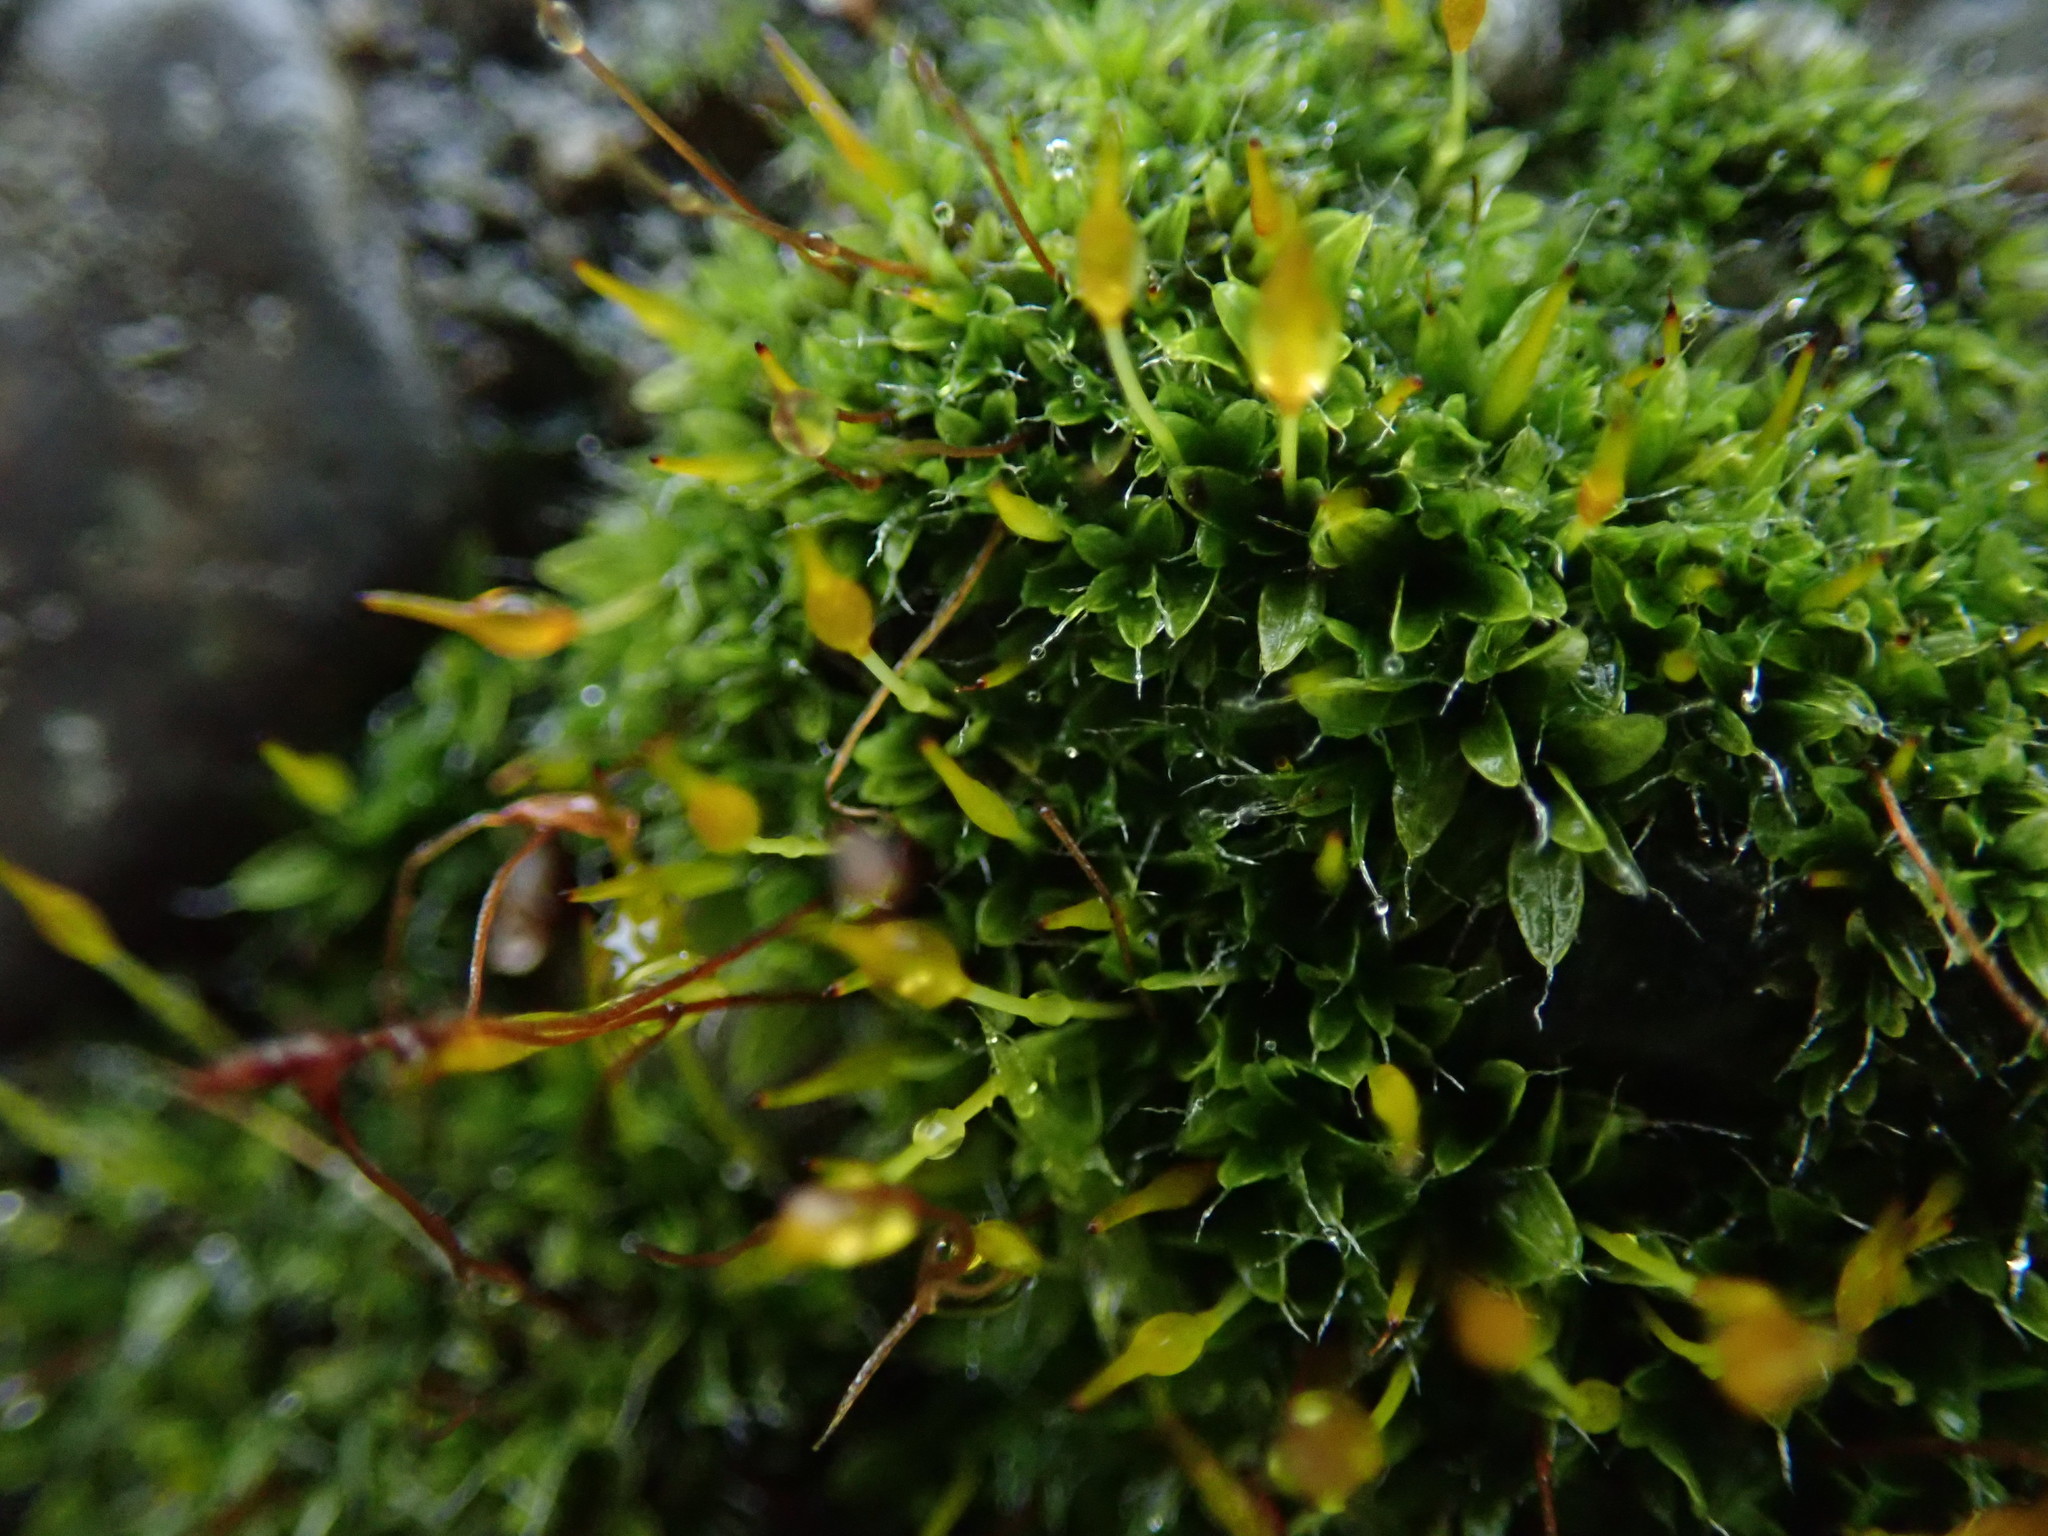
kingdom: Plantae
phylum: Bryophyta
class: Bryopsida
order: Pottiales
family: Pottiaceae
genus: Tortula
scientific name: Tortula muralis
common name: Wall screw-moss
